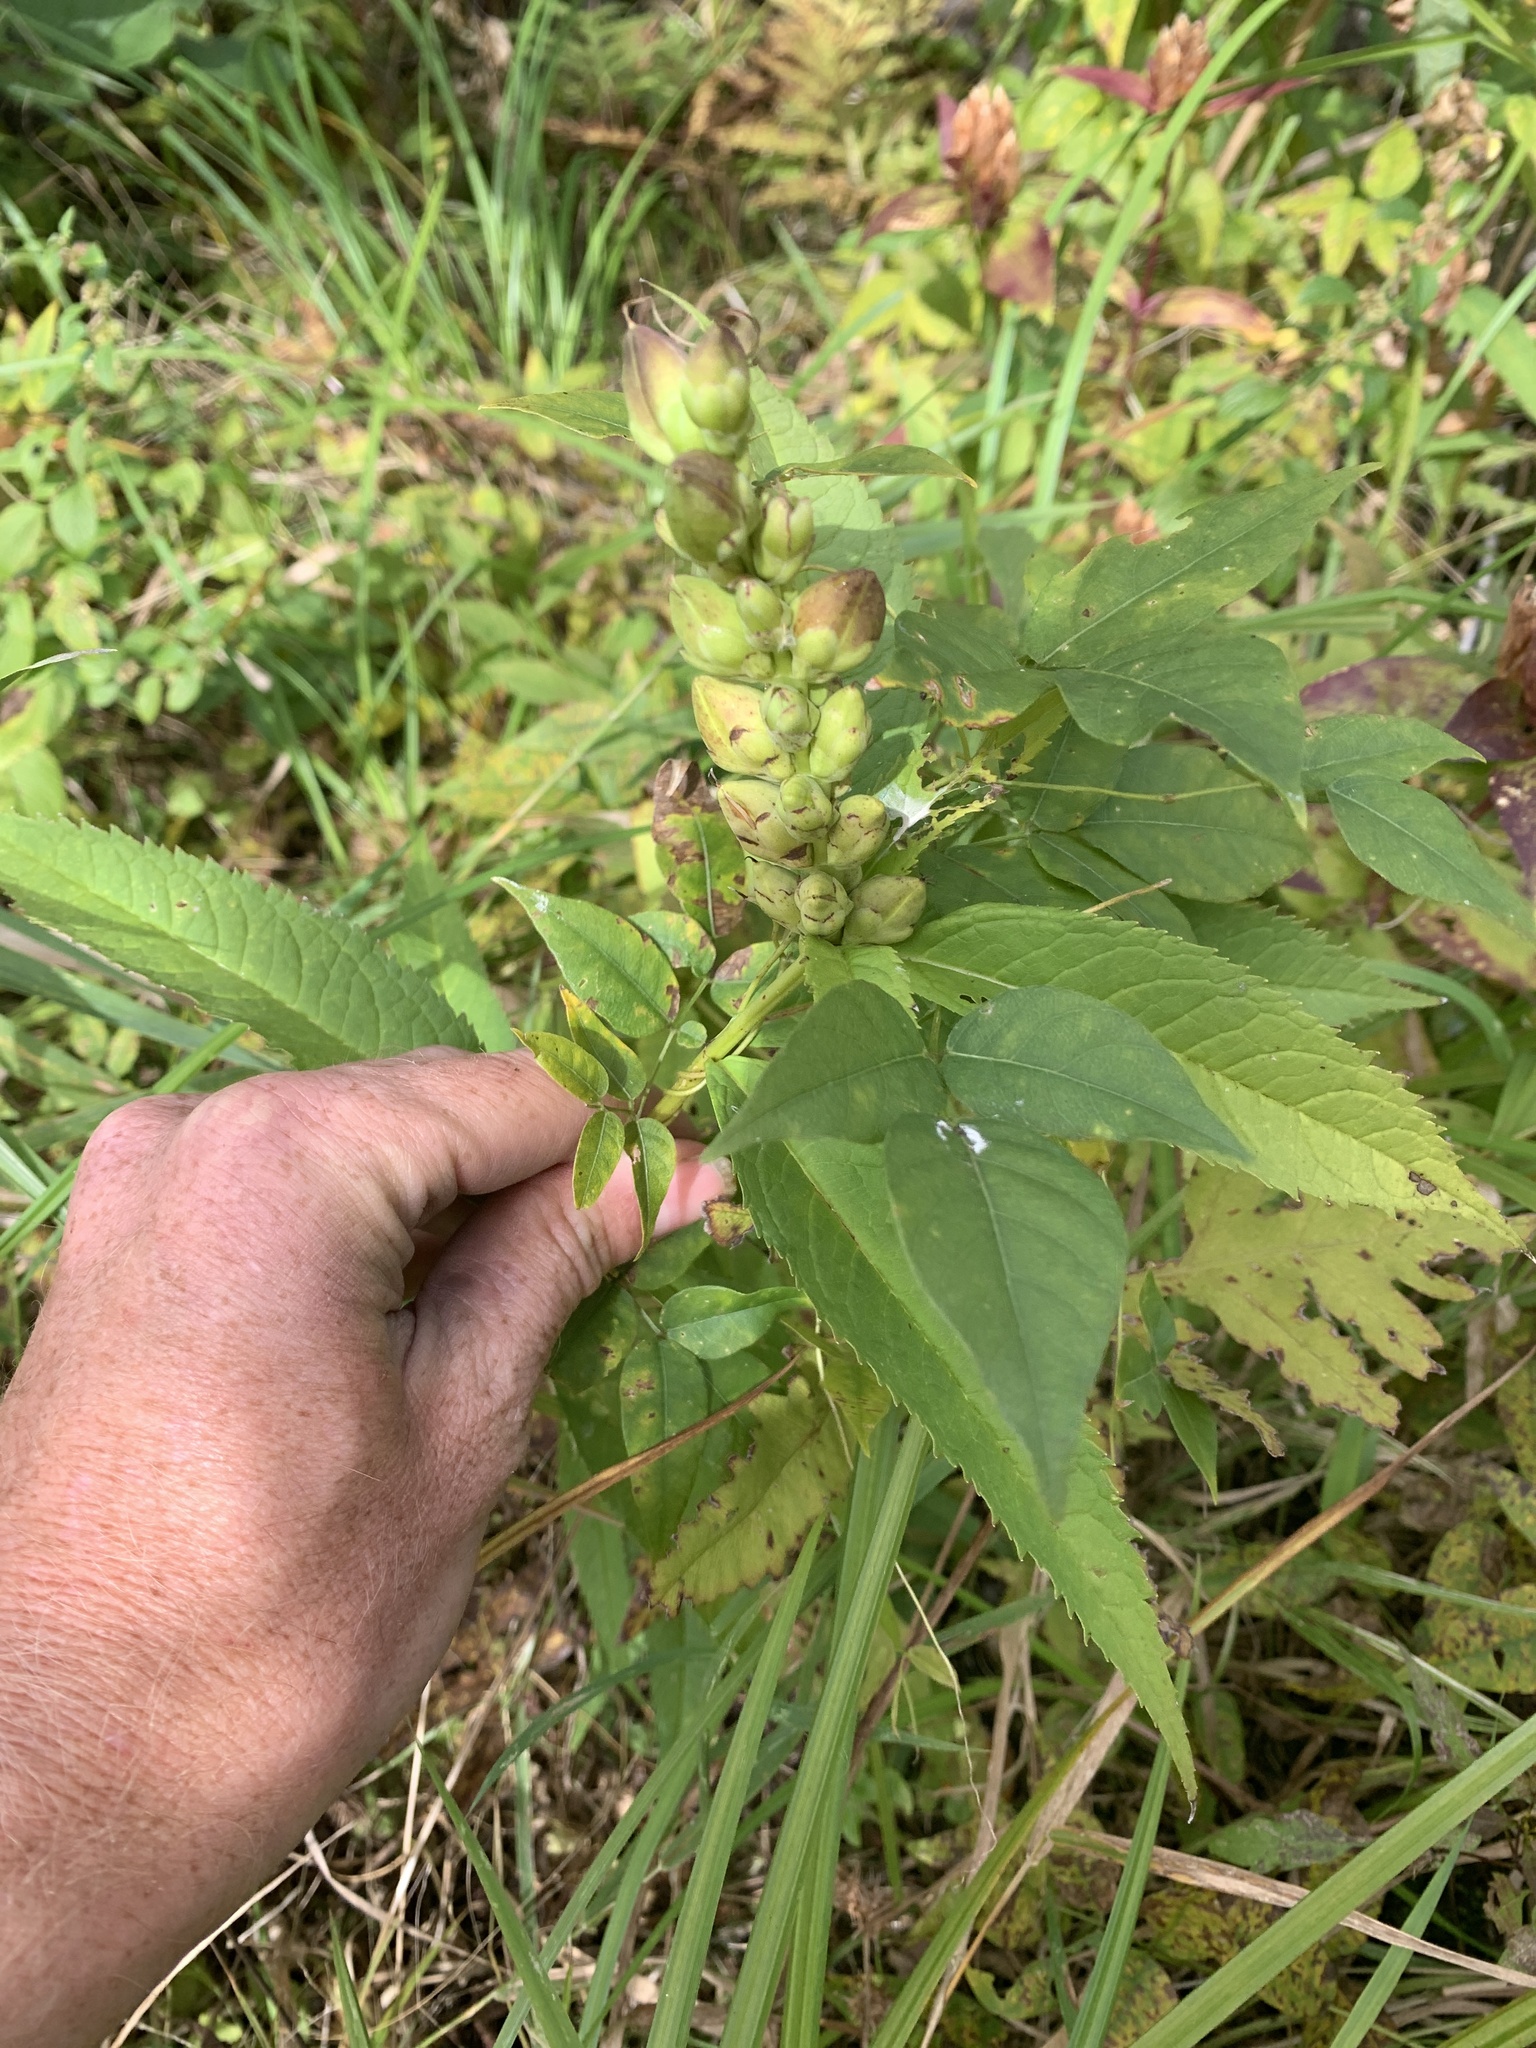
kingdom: Plantae
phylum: Tracheophyta
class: Magnoliopsida
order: Lamiales
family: Plantaginaceae
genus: Chelone
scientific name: Chelone glabra
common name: Snakehead
